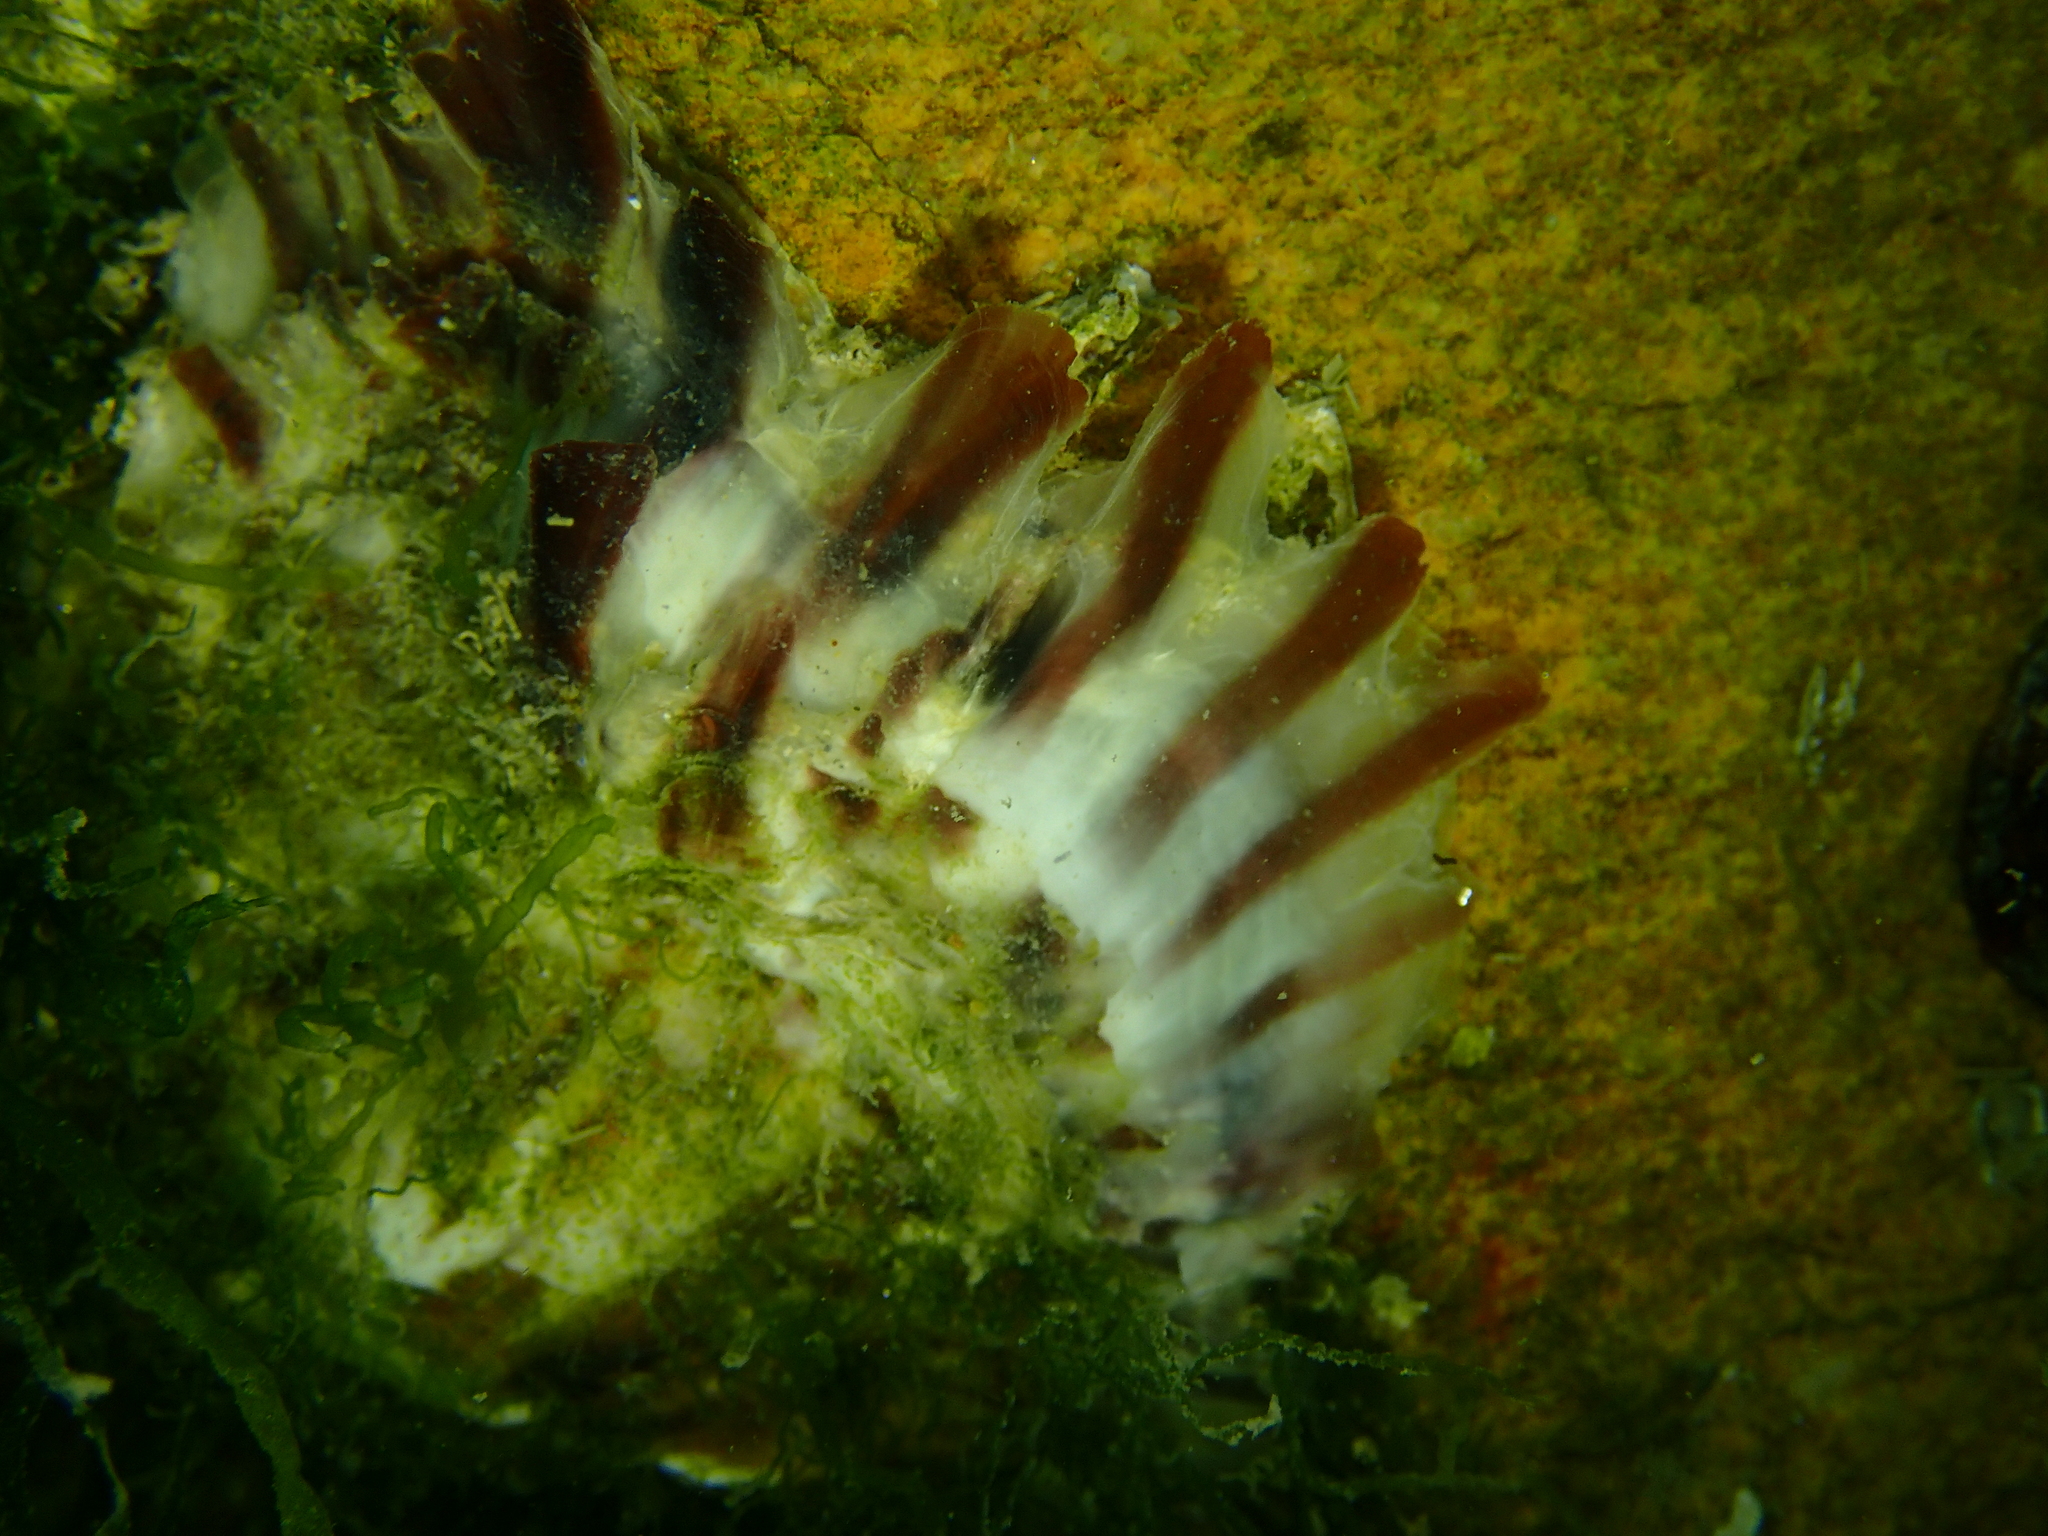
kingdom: Animalia
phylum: Mollusca
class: Bivalvia
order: Ostreida
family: Ostreidae
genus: Magallana
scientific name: Magallana gigas
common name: Pacific oyster
